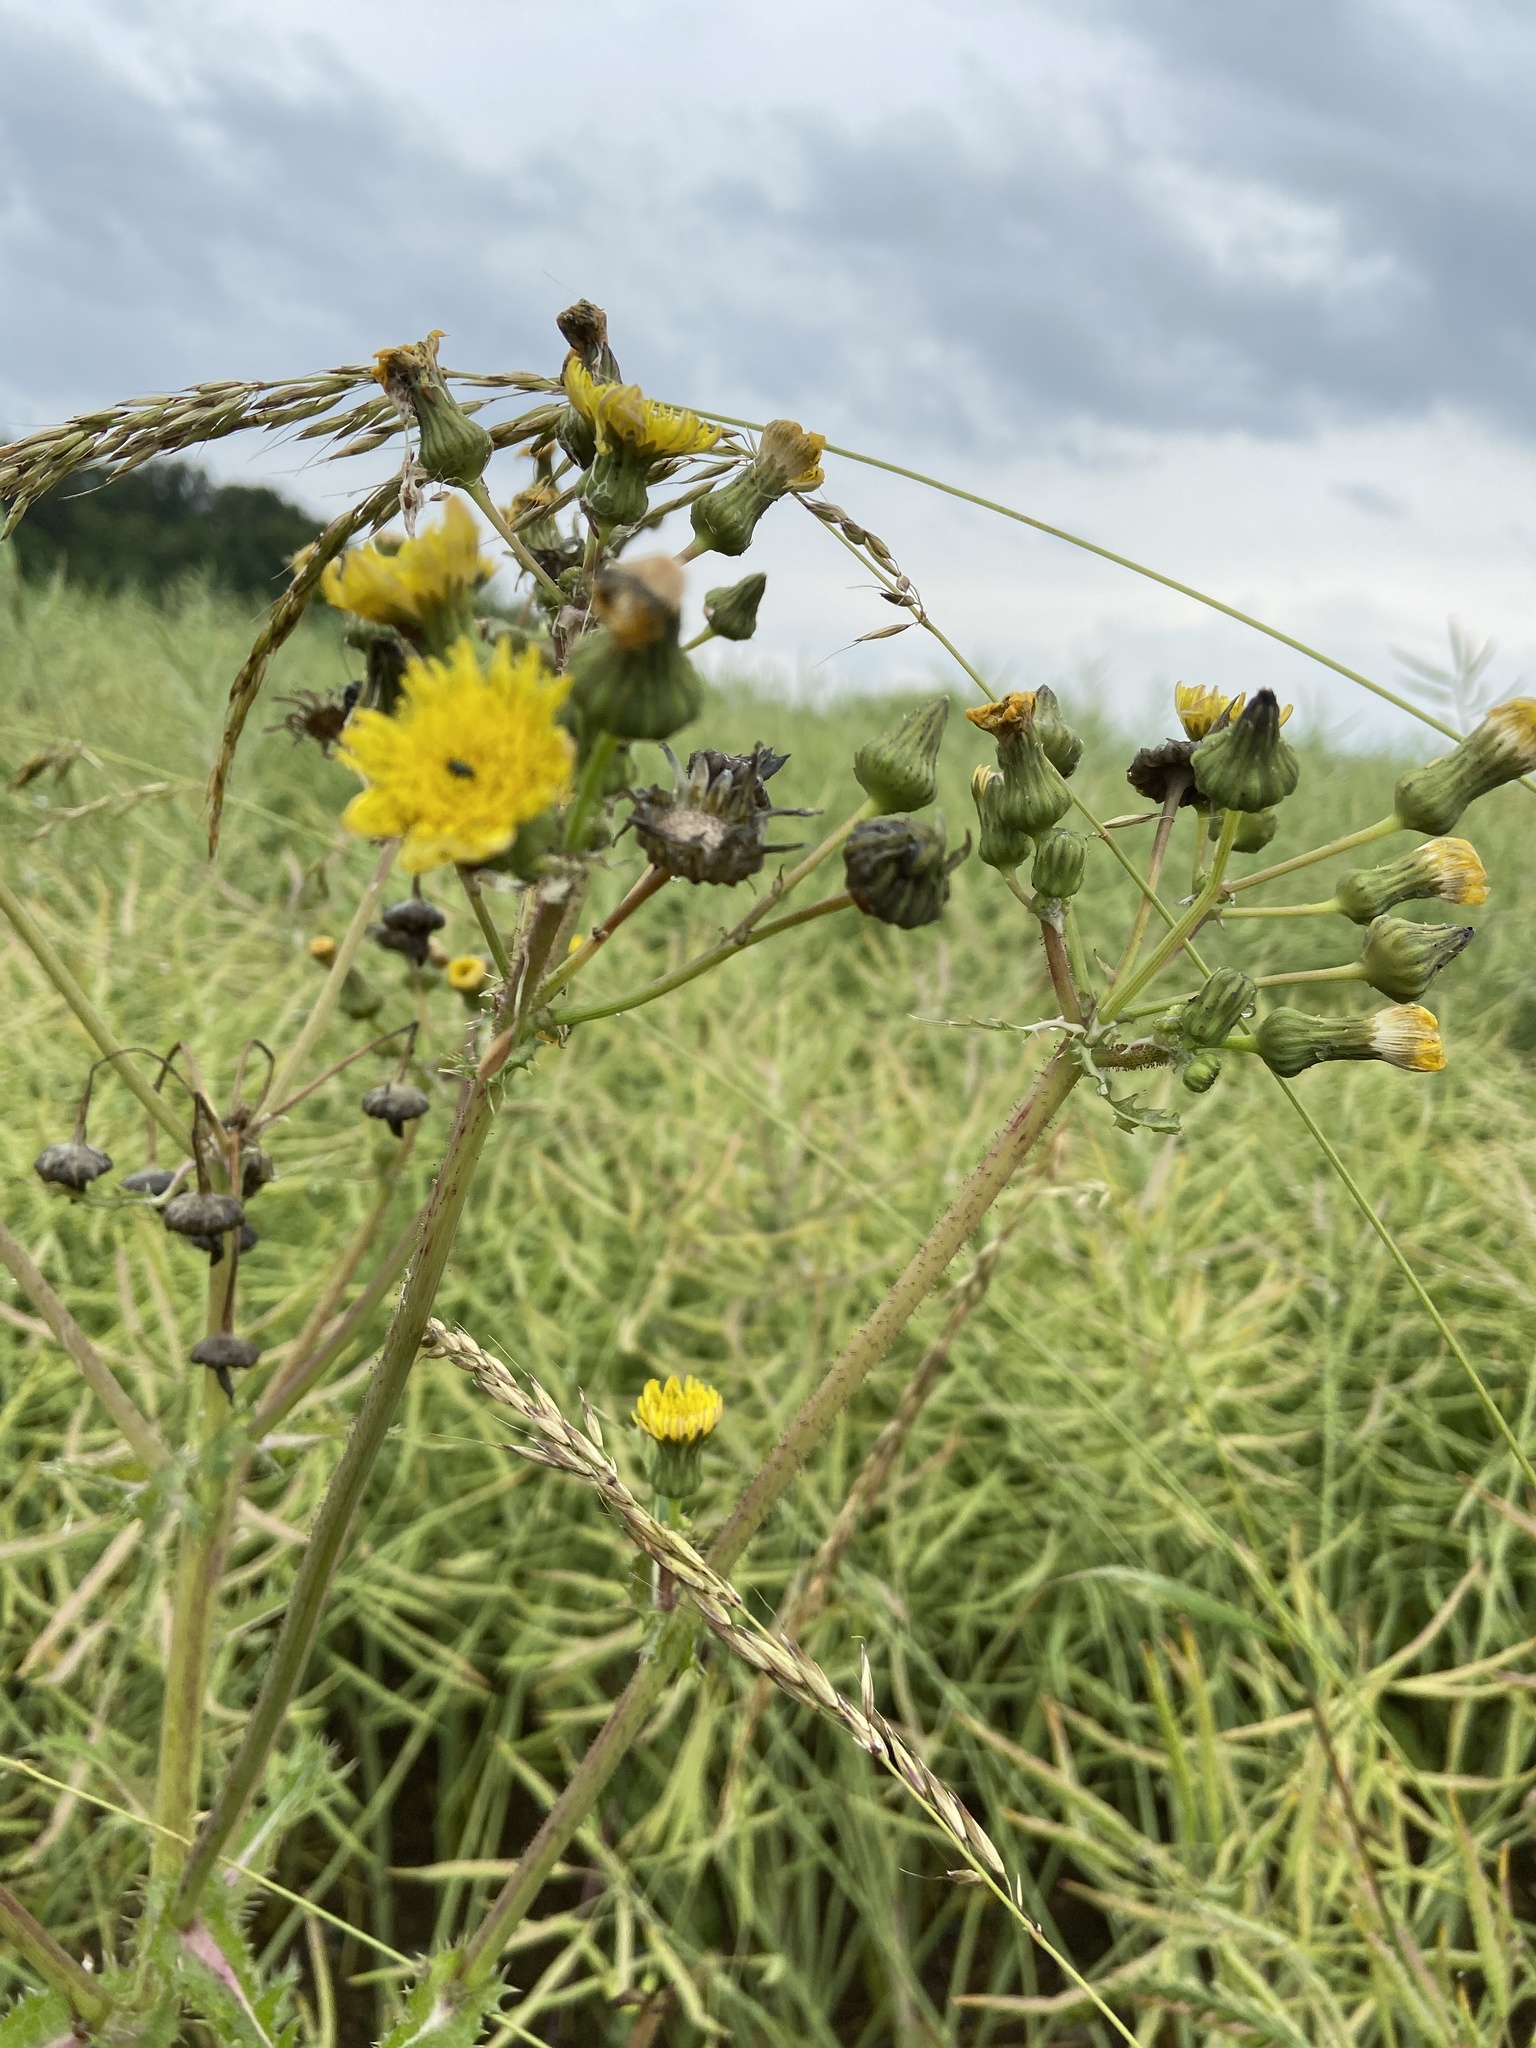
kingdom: Plantae
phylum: Tracheophyta
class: Magnoliopsida
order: Asterales
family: Asteraceae
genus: Sonchus
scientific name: Sonchus asper
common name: Prickly sow-thistle
